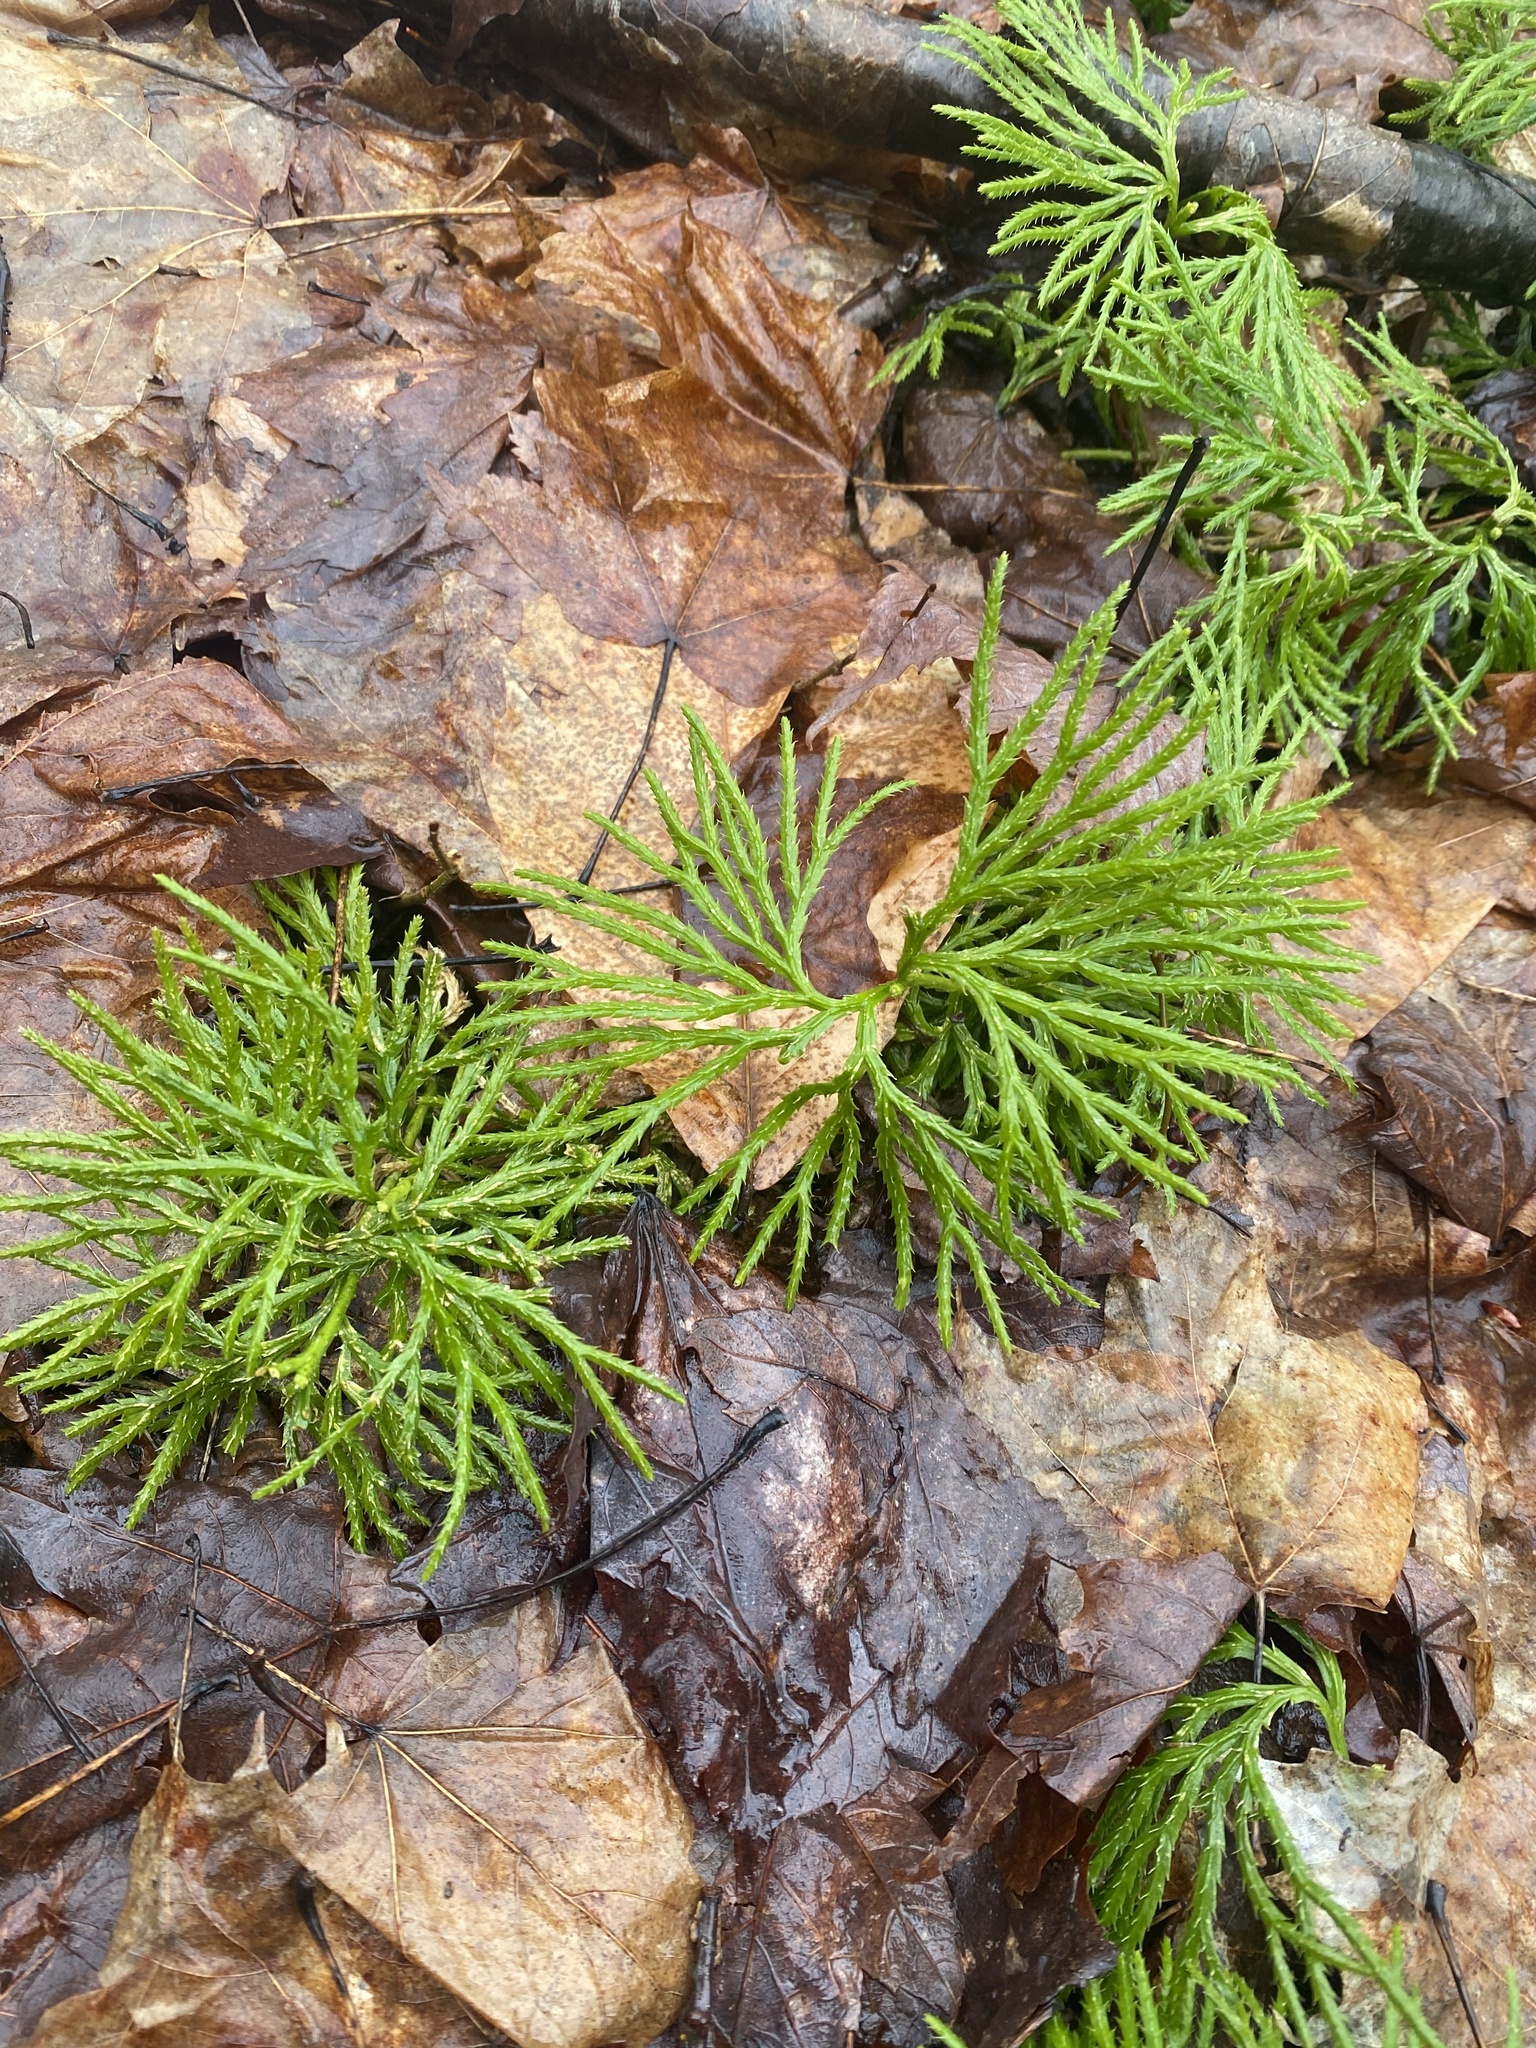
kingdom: Plantae
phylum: Tracheophyta
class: Lycopodiopsida
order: Lycopodiales
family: Lycopodiaceae
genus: Diphasiastrum
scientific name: Diphasiastrum digitatum
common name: Southern running-pine
